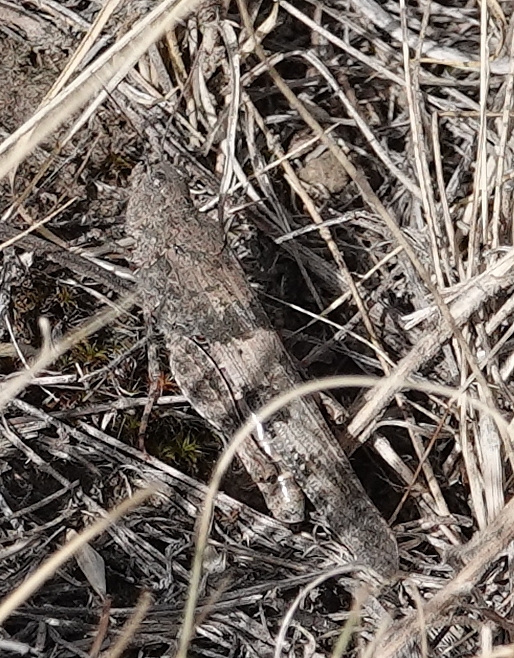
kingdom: Animalia
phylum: Arthropoda
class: Insecta
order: Orthoptera
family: Acrididae
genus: Trimerotropis
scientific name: Trimerotropis pallidipennis
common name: Pallid-winged grasshopper
